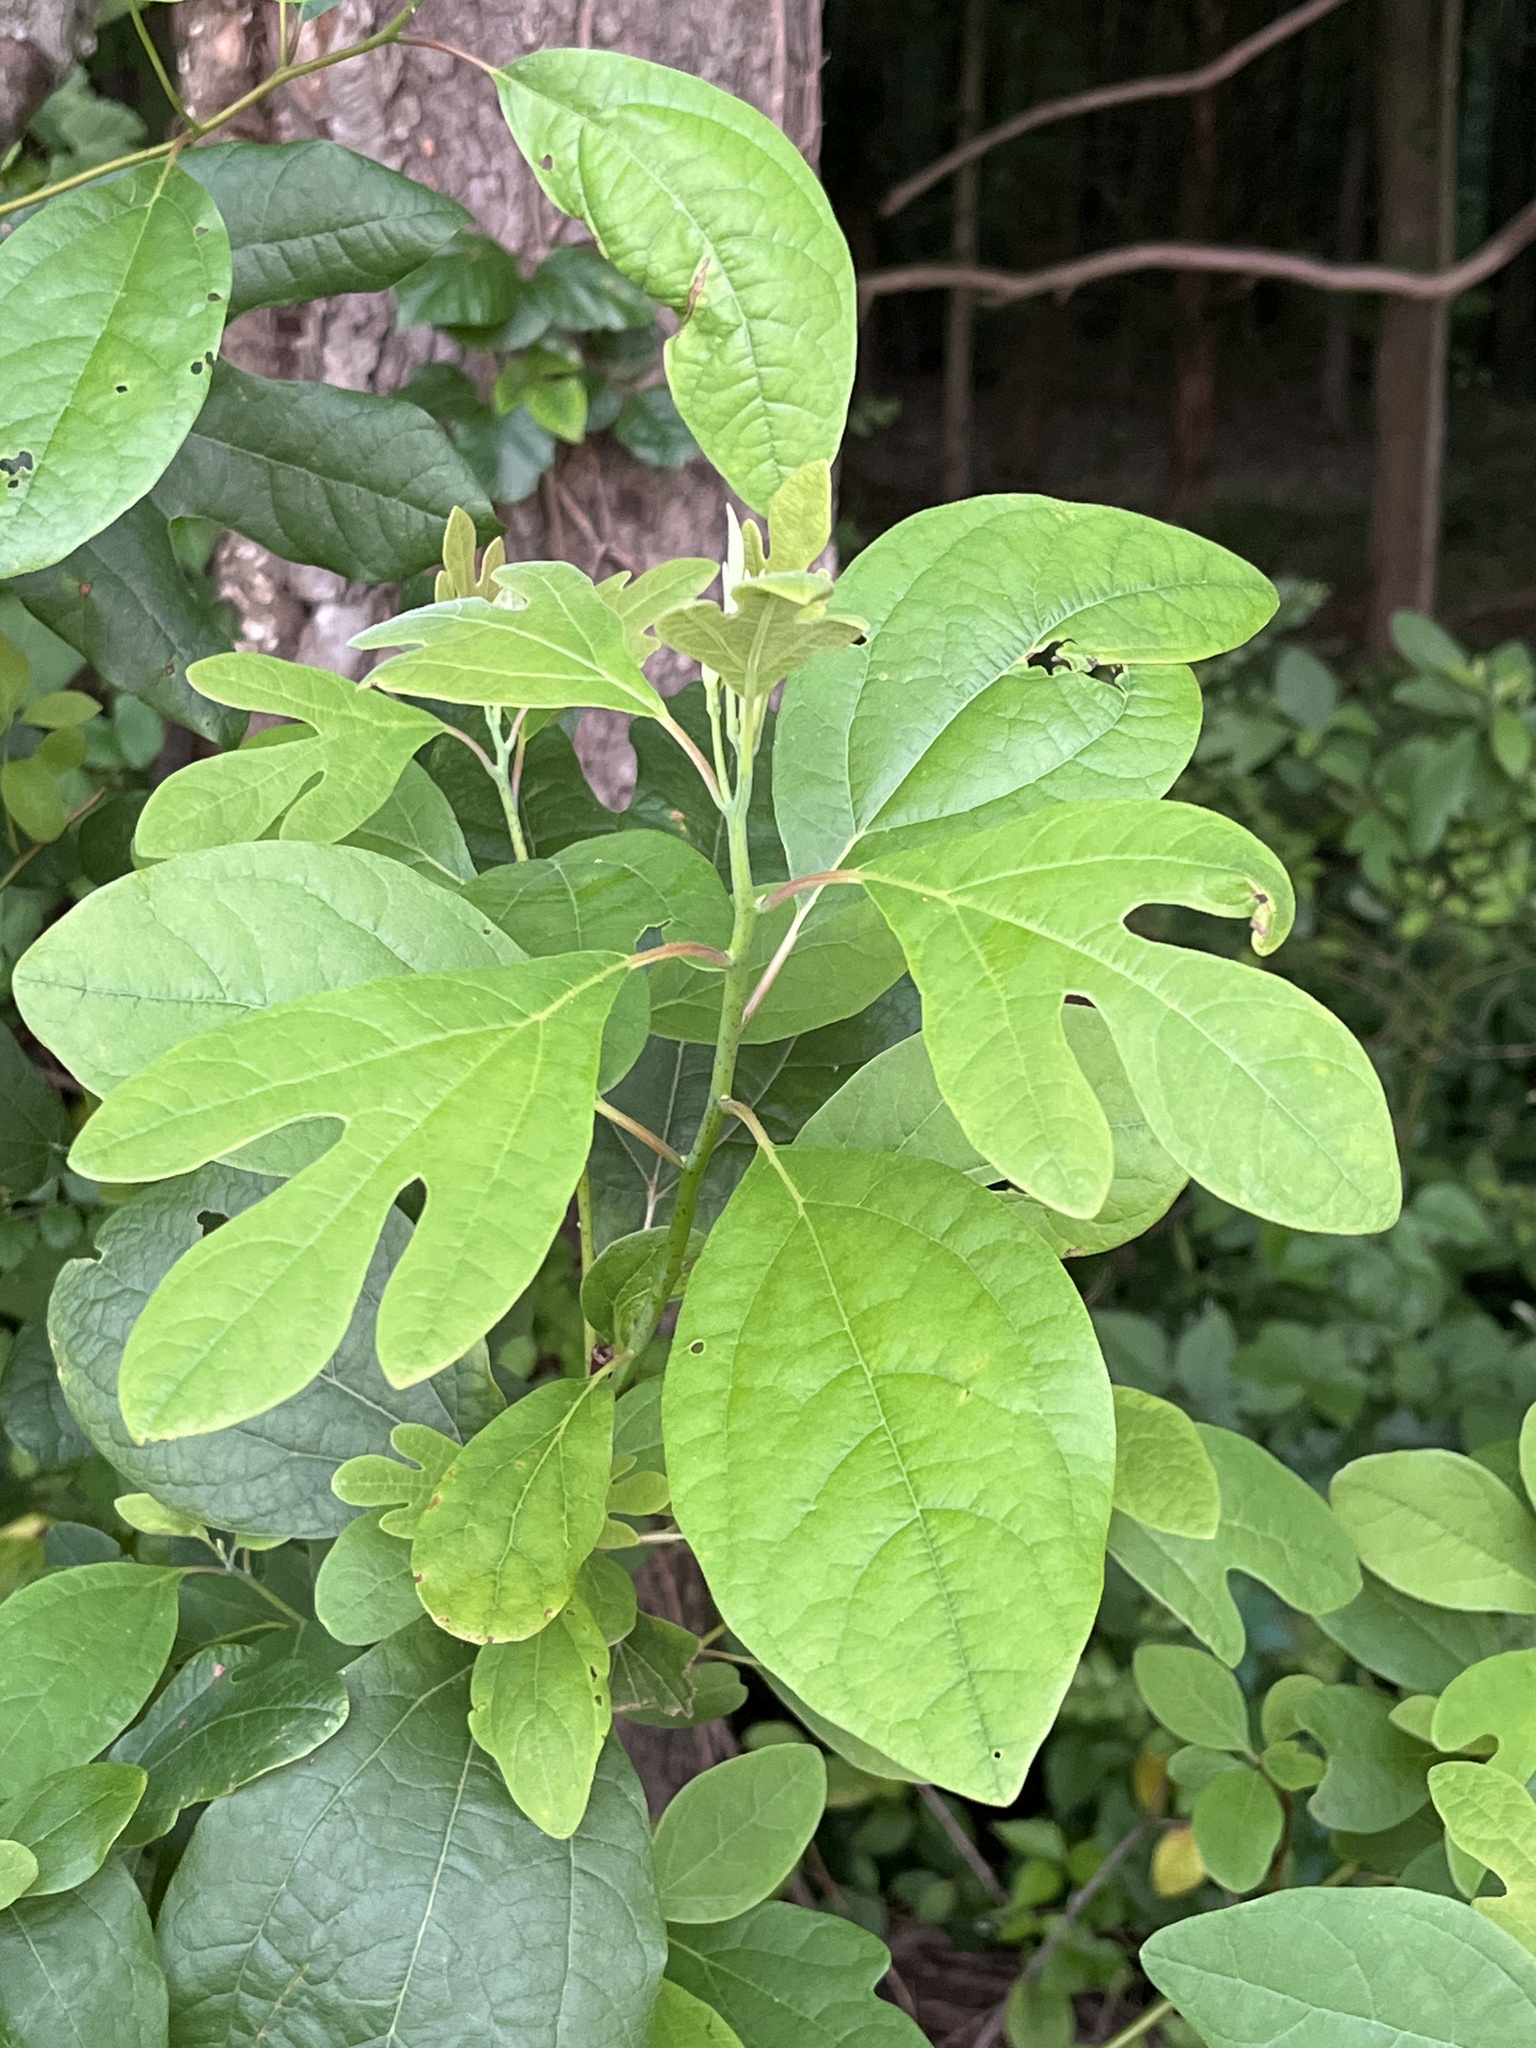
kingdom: Plantae
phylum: Tracheophyta
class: Magnoliopsida
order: Laurales
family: Lauraceae
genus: Sassafras
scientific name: Sassafras albidum
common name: Sassafras
